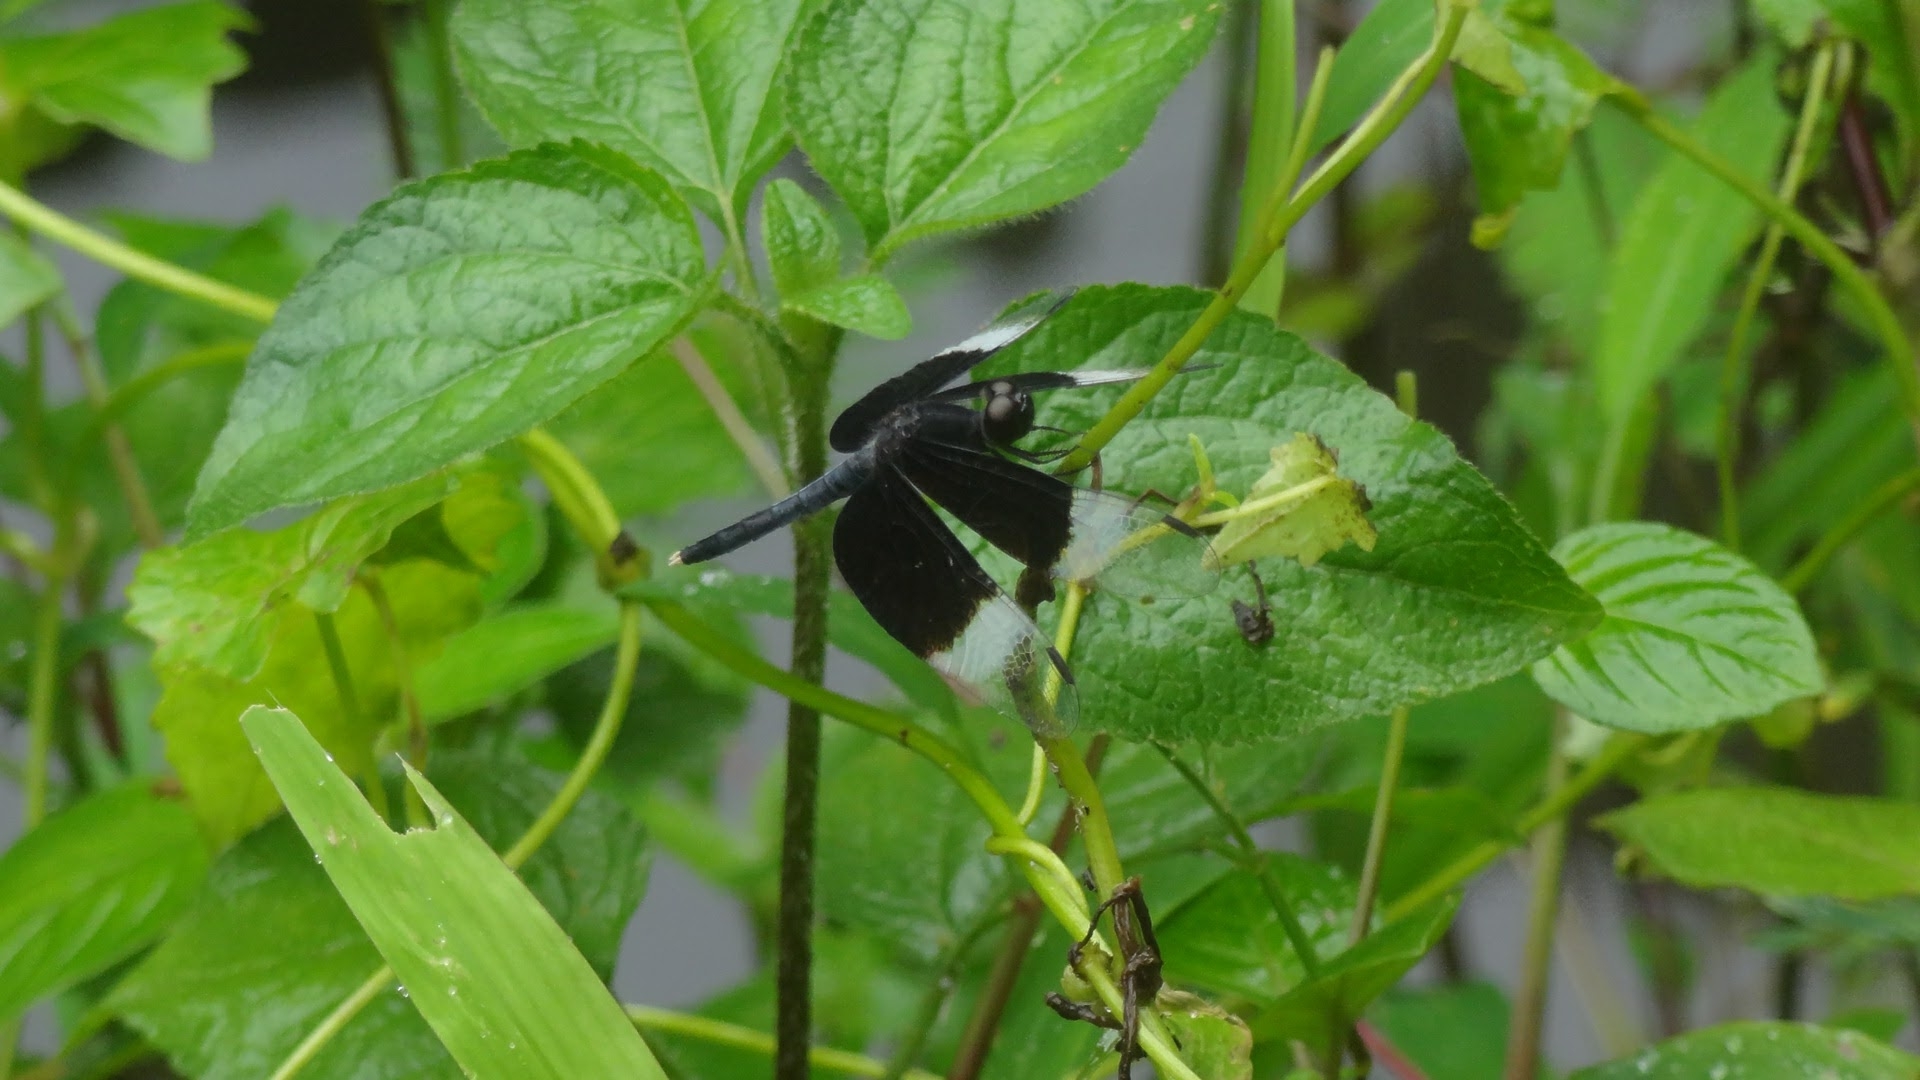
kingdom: Animalia
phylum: Arthropoda
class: Insecta
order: Odonata
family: Libellulidae
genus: Neurothemis
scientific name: Neurothemis tullia
